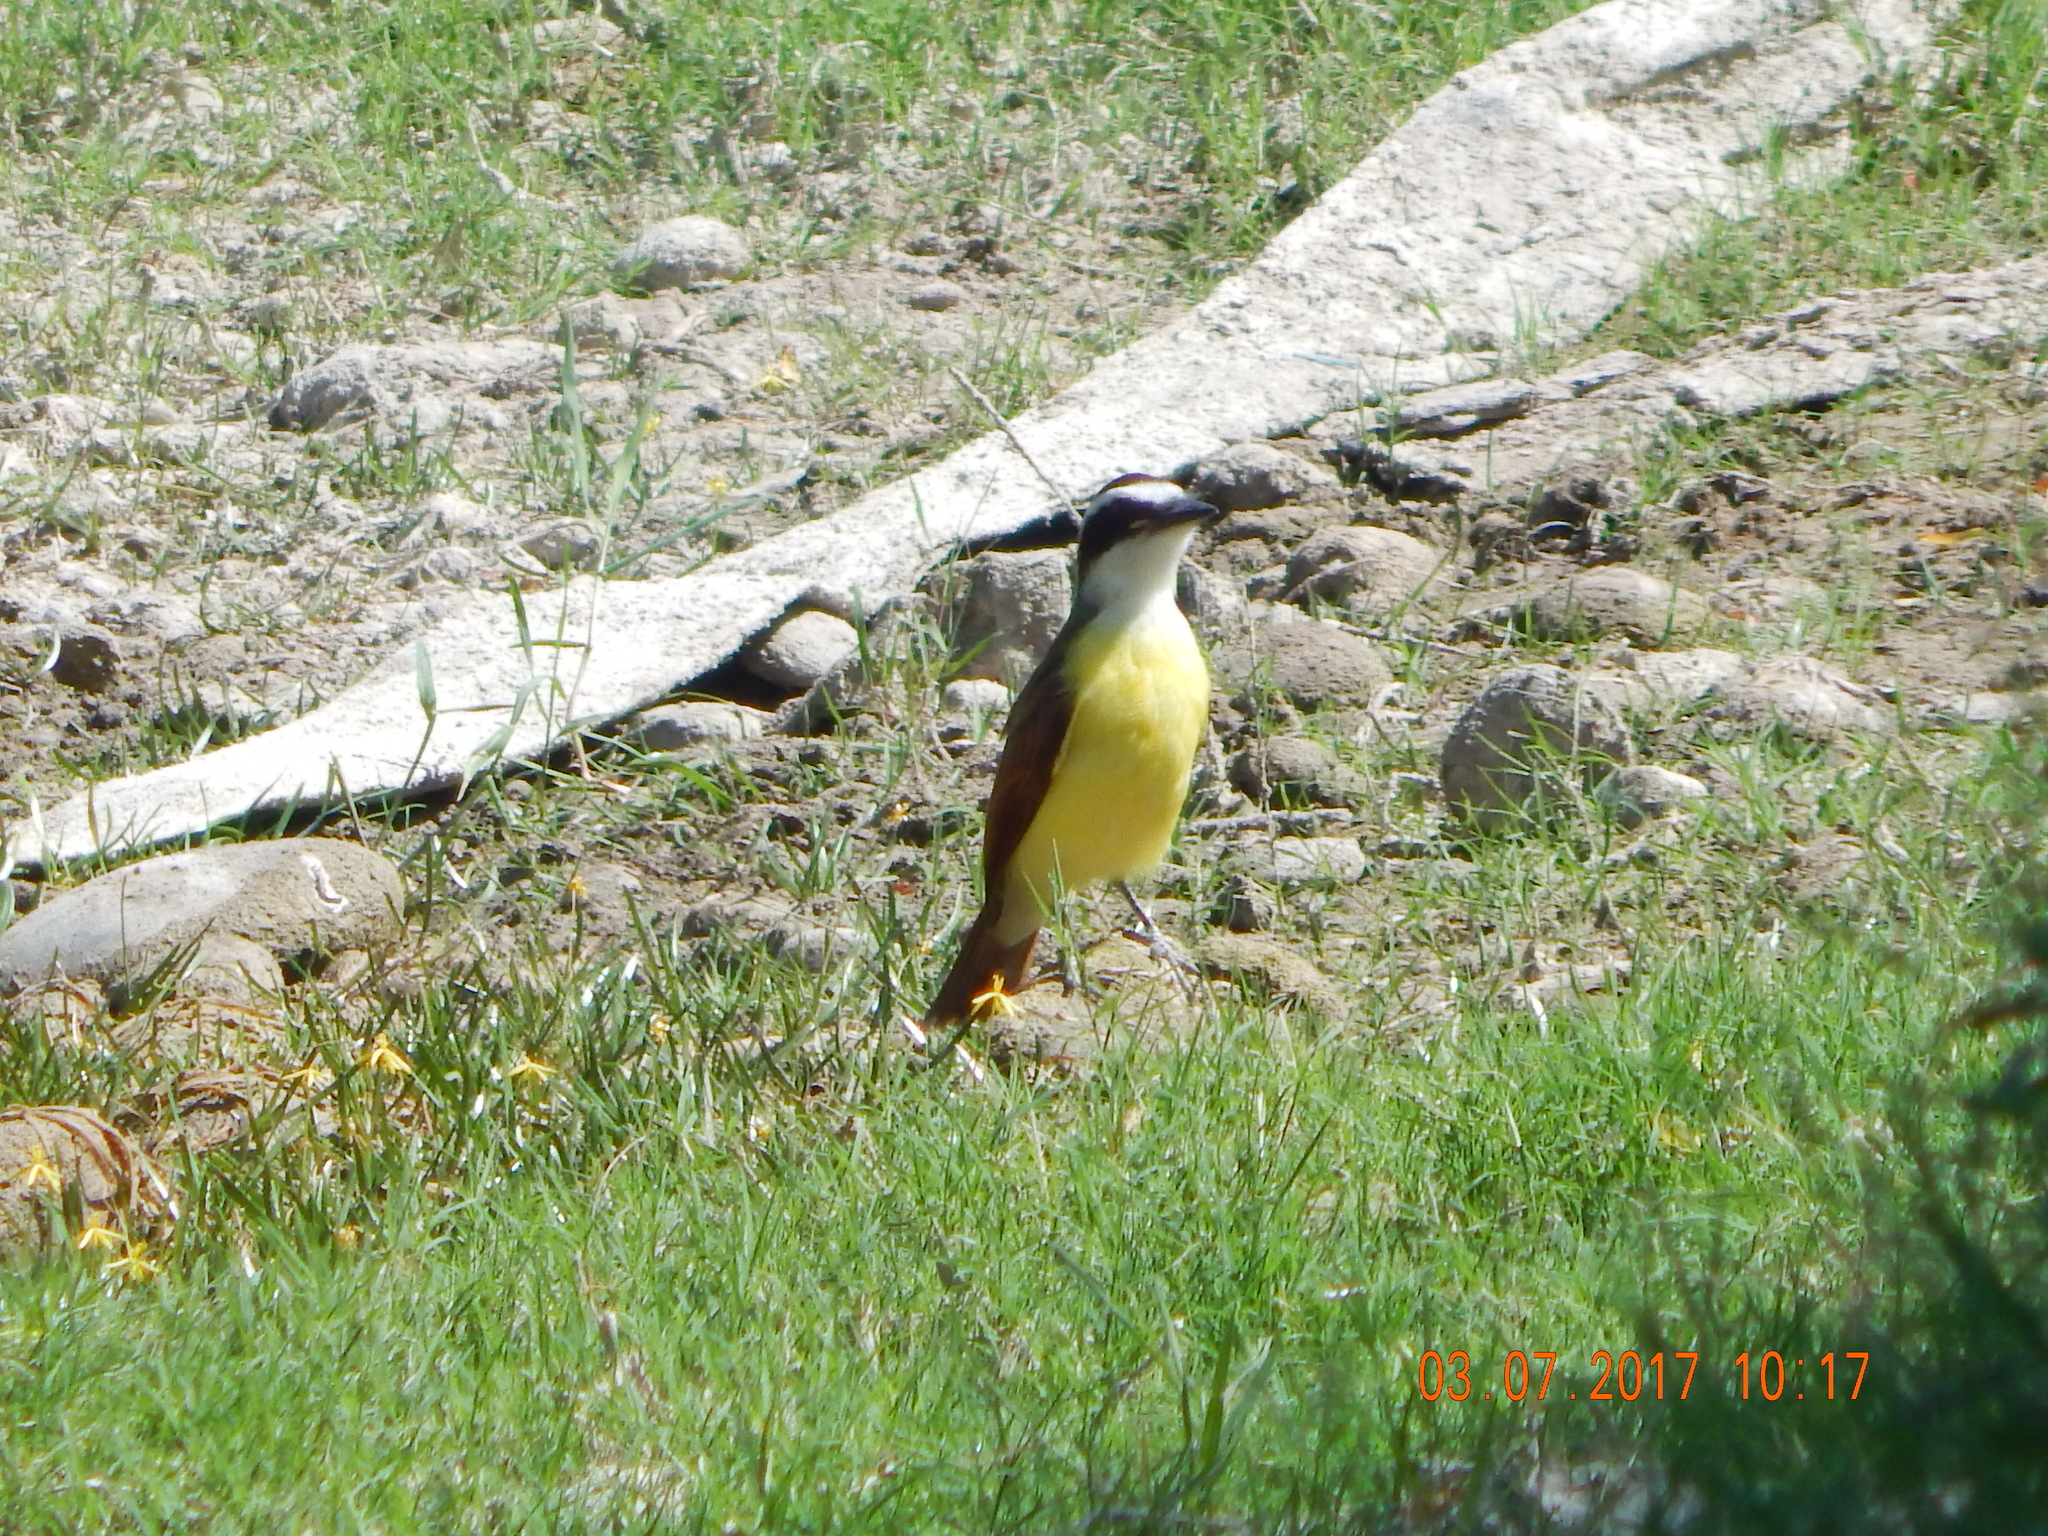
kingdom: Animalia
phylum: Chordata
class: Aves
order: Passeriformes
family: Tyrannidae
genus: Pitangus
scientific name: Pitangus sulphuratus
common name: Great kiskadee
